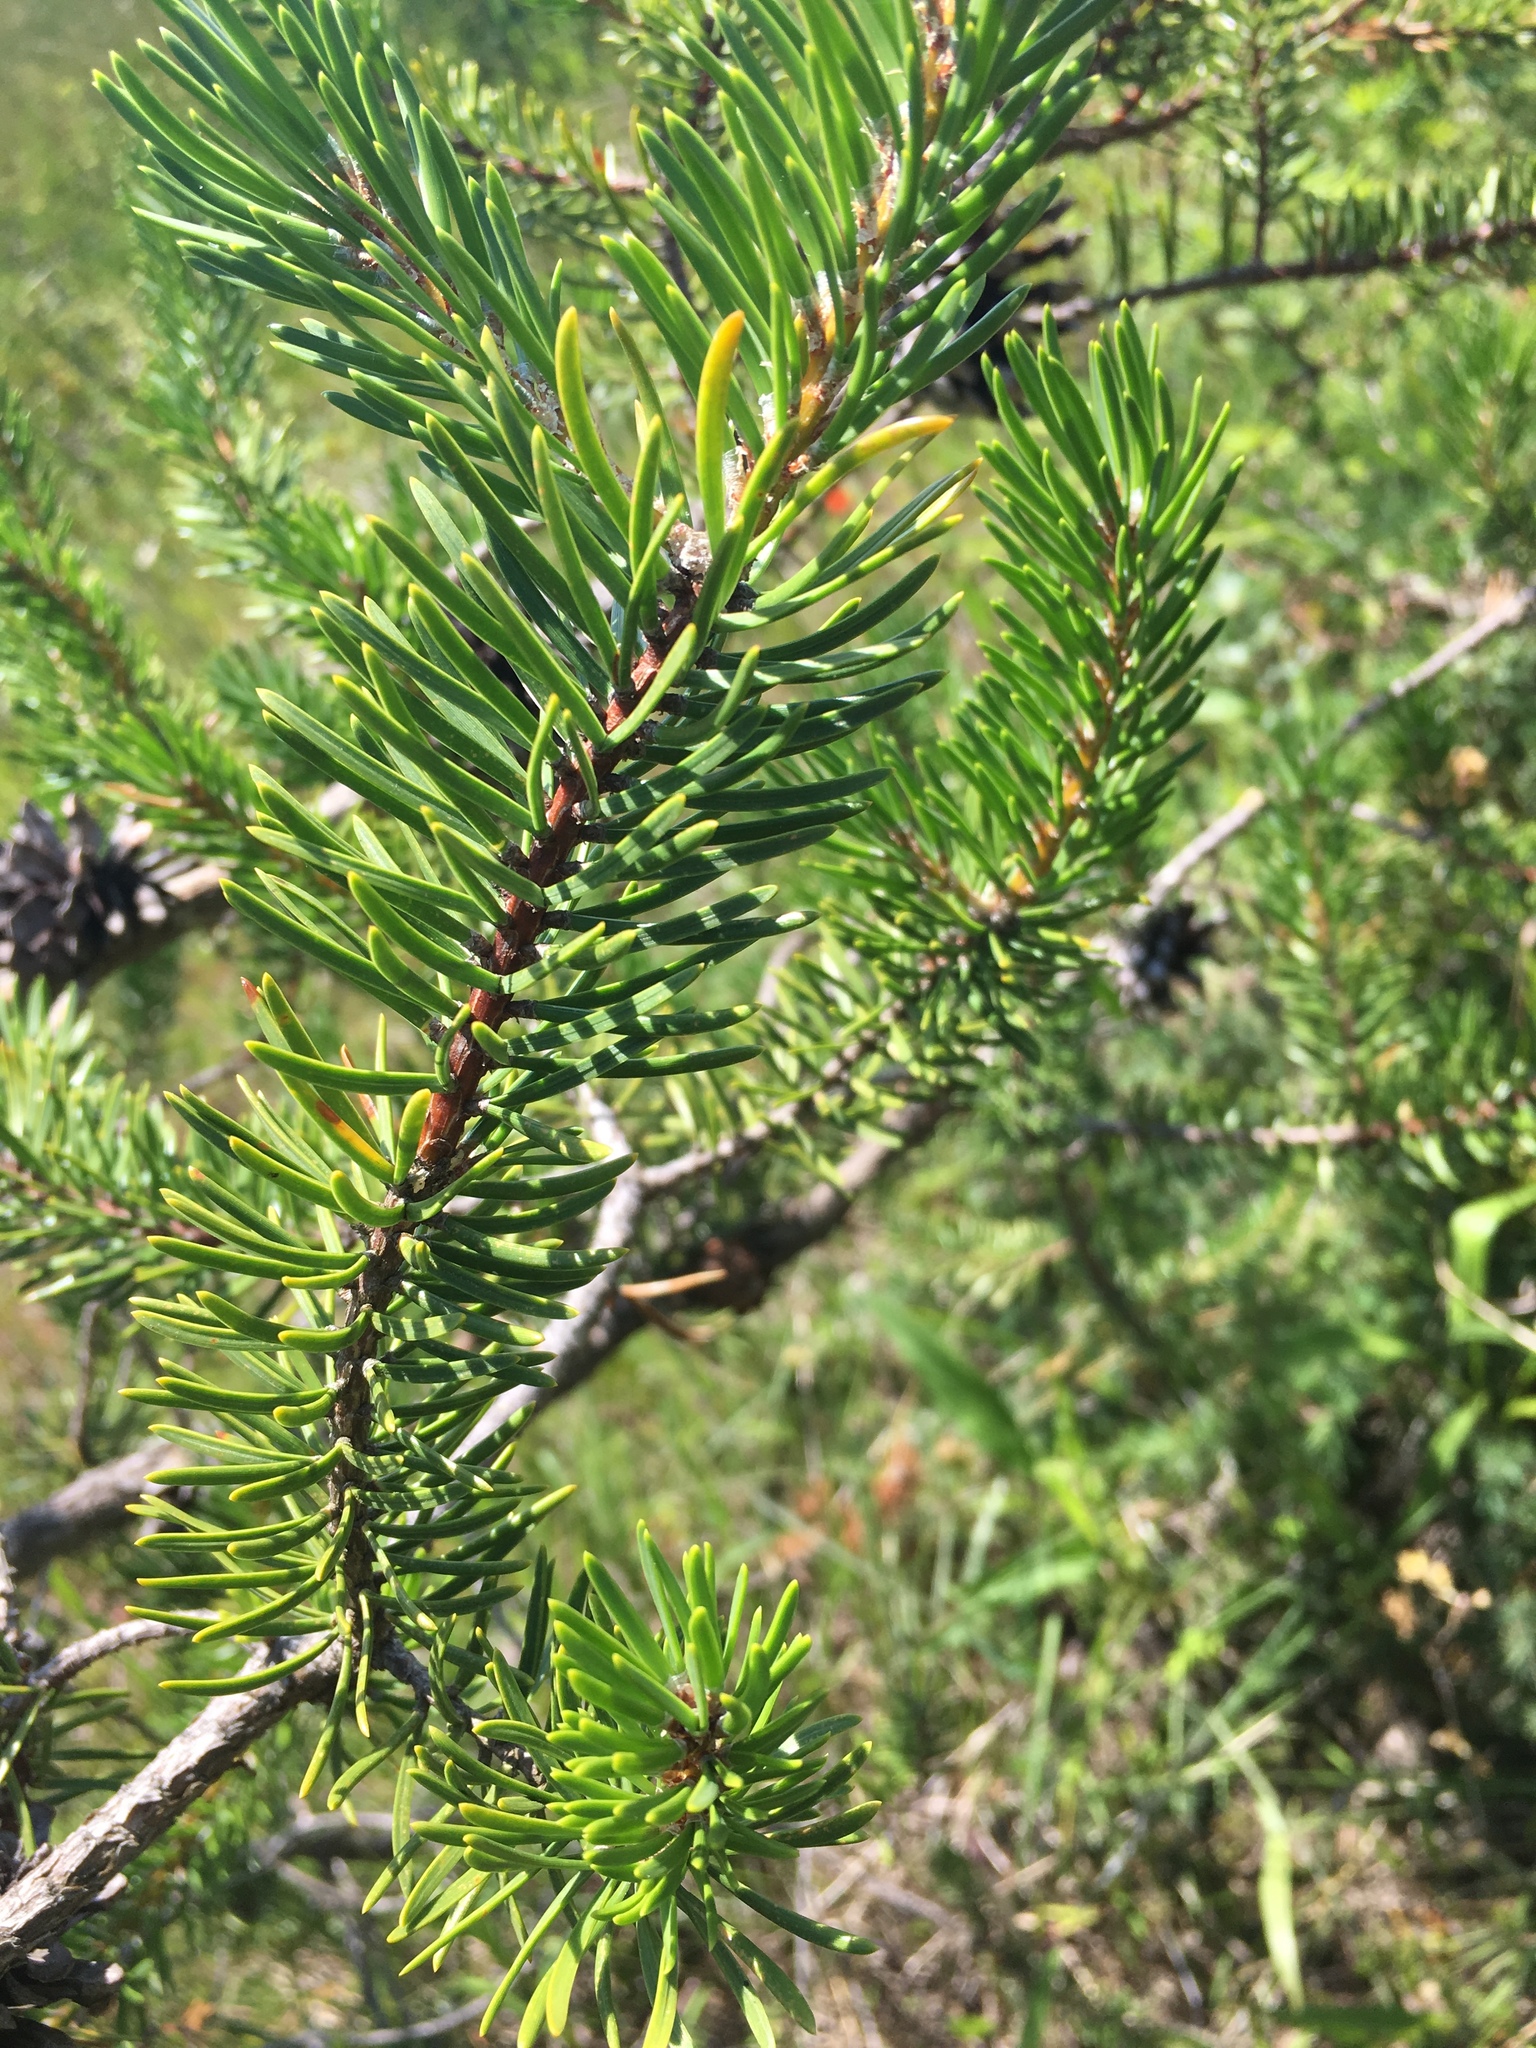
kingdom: Plantae
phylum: Tracheophyta
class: Pinopsida
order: Pinales
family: Pinaceae
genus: Pinus
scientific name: Pinus banksiana
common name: Jack pine
